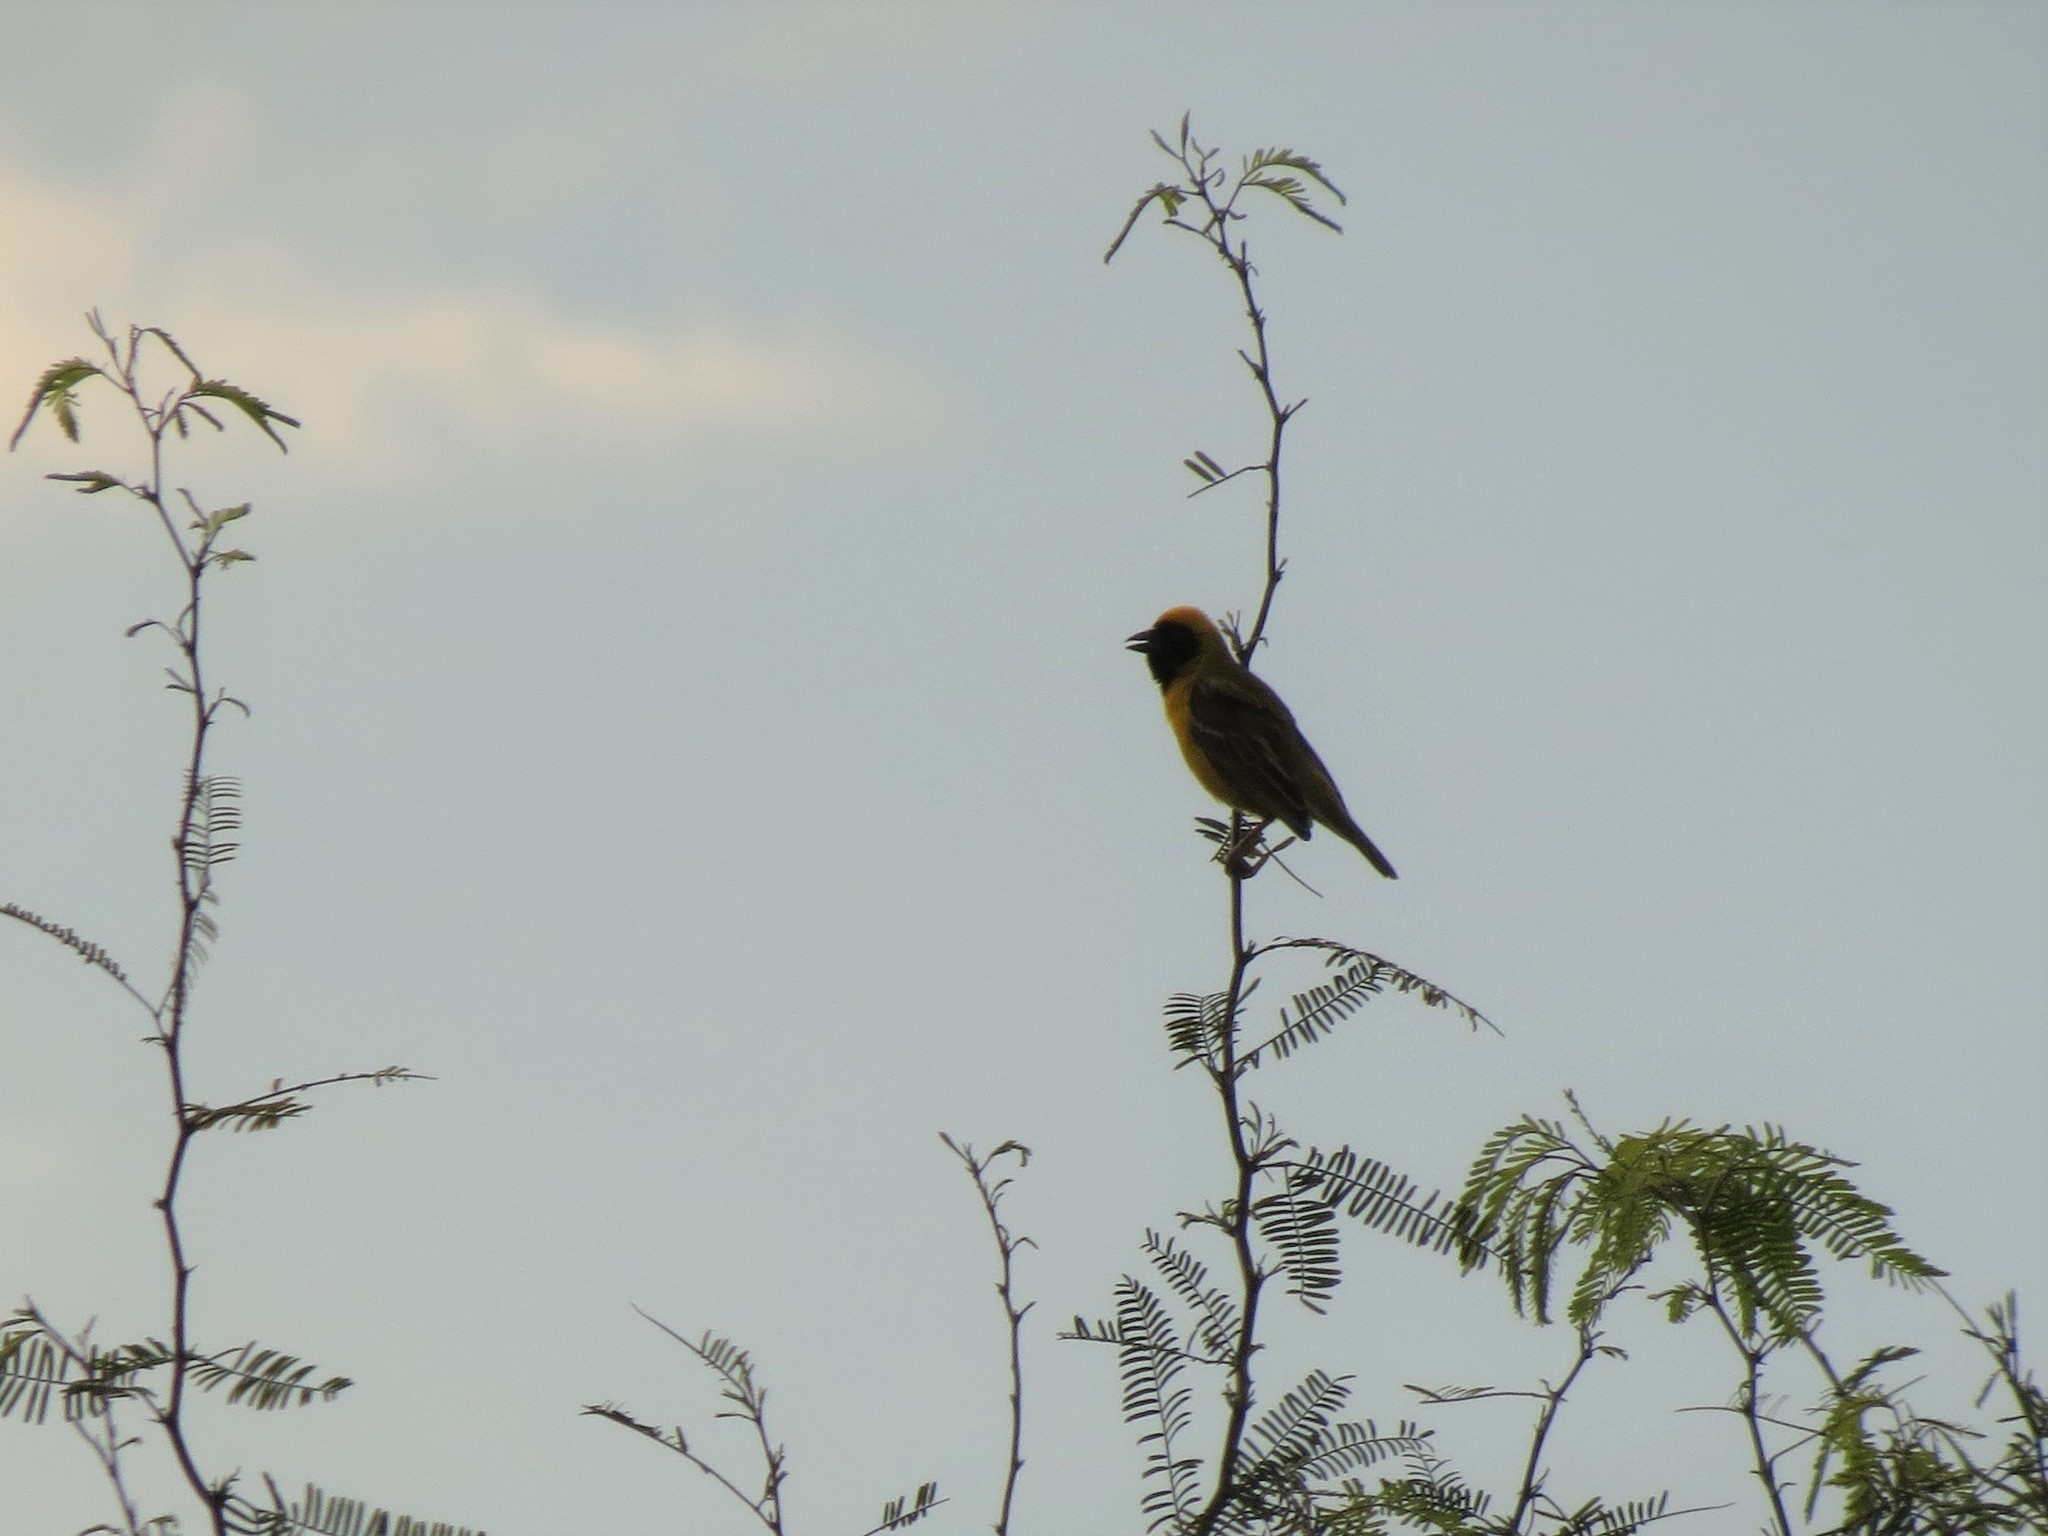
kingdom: Animalia
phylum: Chordata
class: Aves
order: Passeriformes
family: Ploceidae
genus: Ploceus
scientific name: Ploceus velatus
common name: Southern masked weaver
